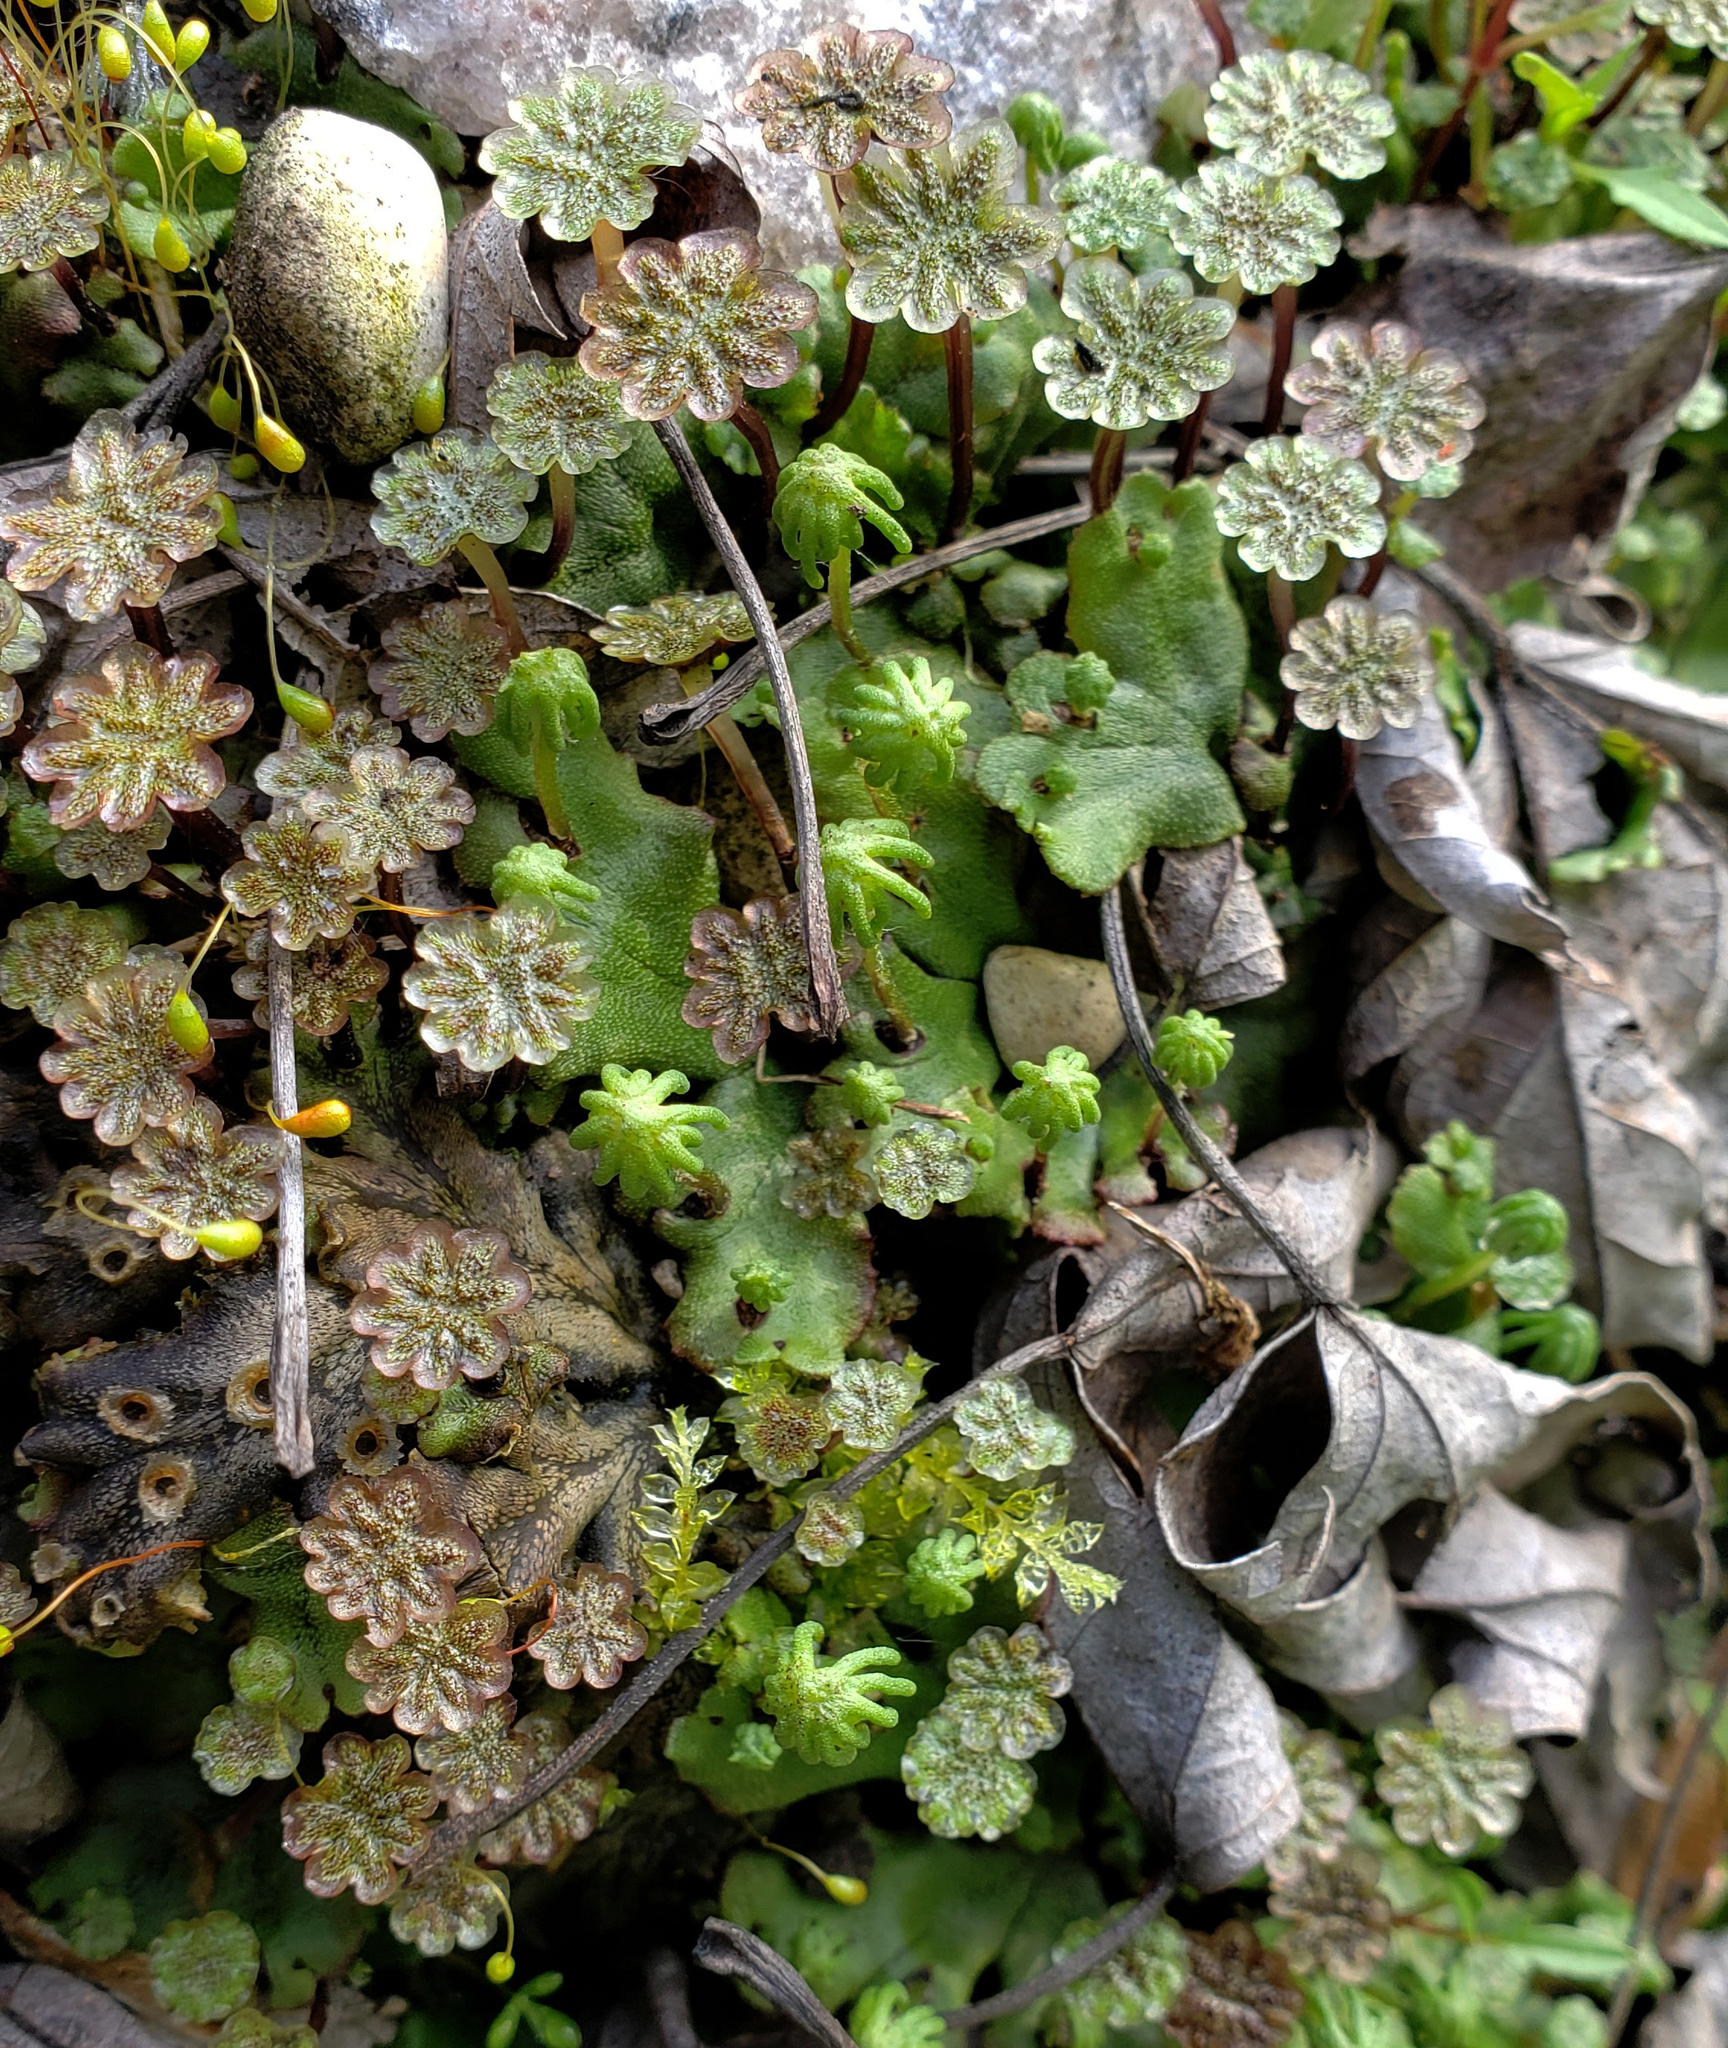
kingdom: Plantae
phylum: Marchantiophyta
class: Marchantiopsida
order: Marchantiales
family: Marchantiaceae
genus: Marchantia
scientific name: Marchantia polymorpha
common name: Common liverwort
